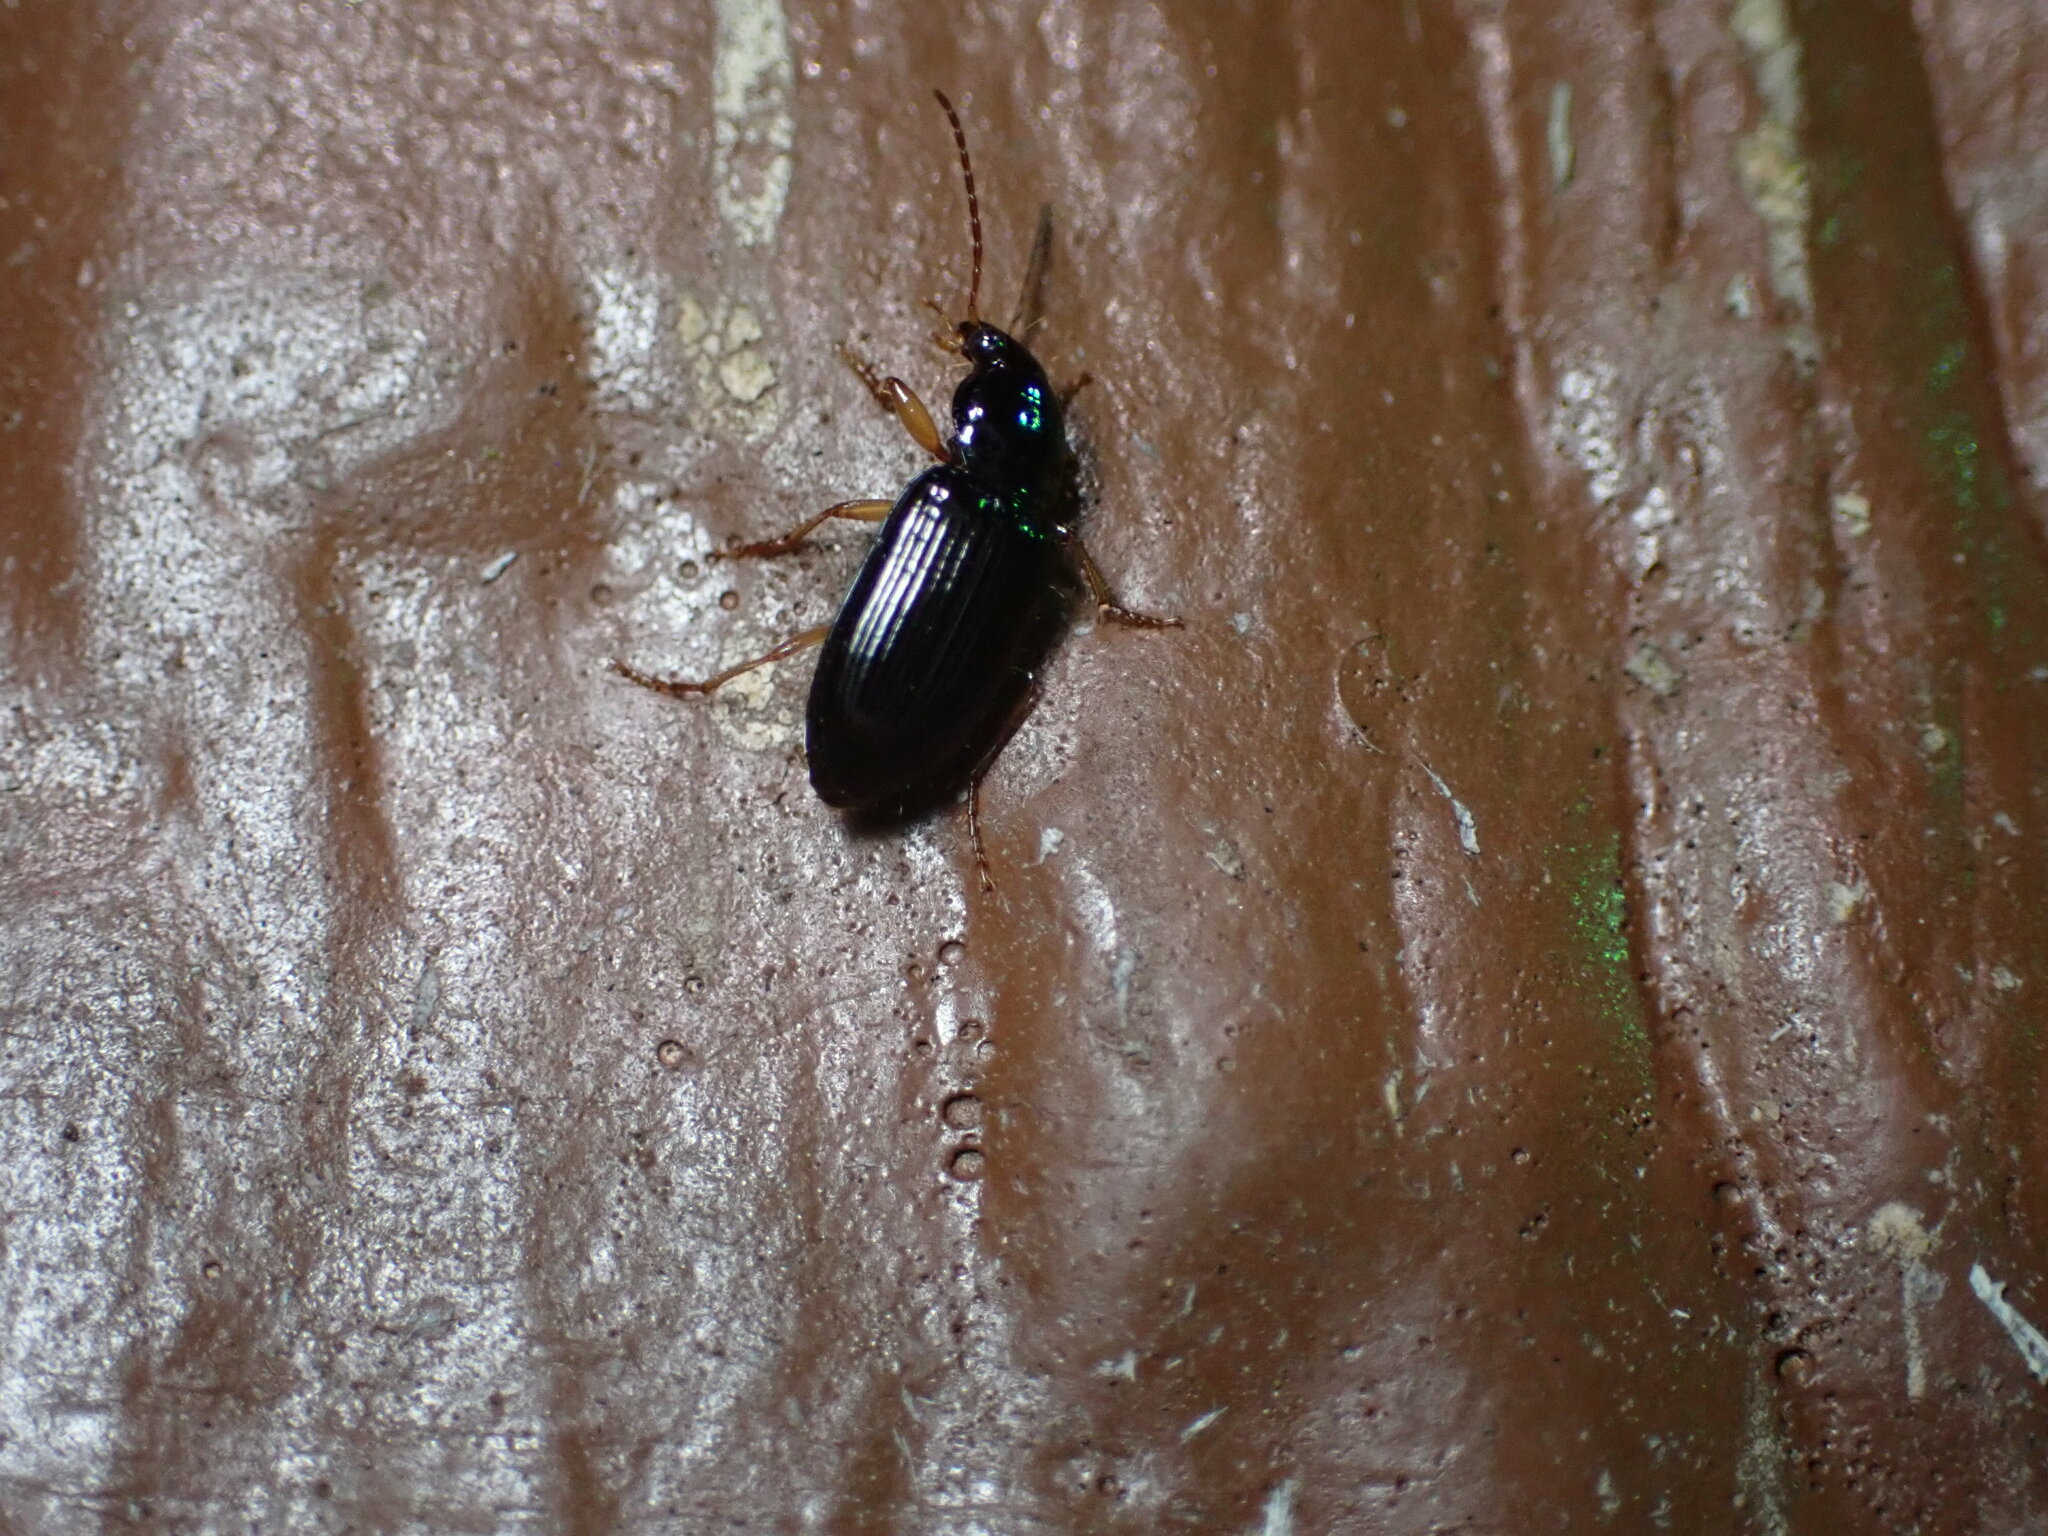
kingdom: Animalia
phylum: Arthropoda
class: Insecta
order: Coleoptera
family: Carabidae
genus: Selenophorus
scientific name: Selenophorus hylacis
